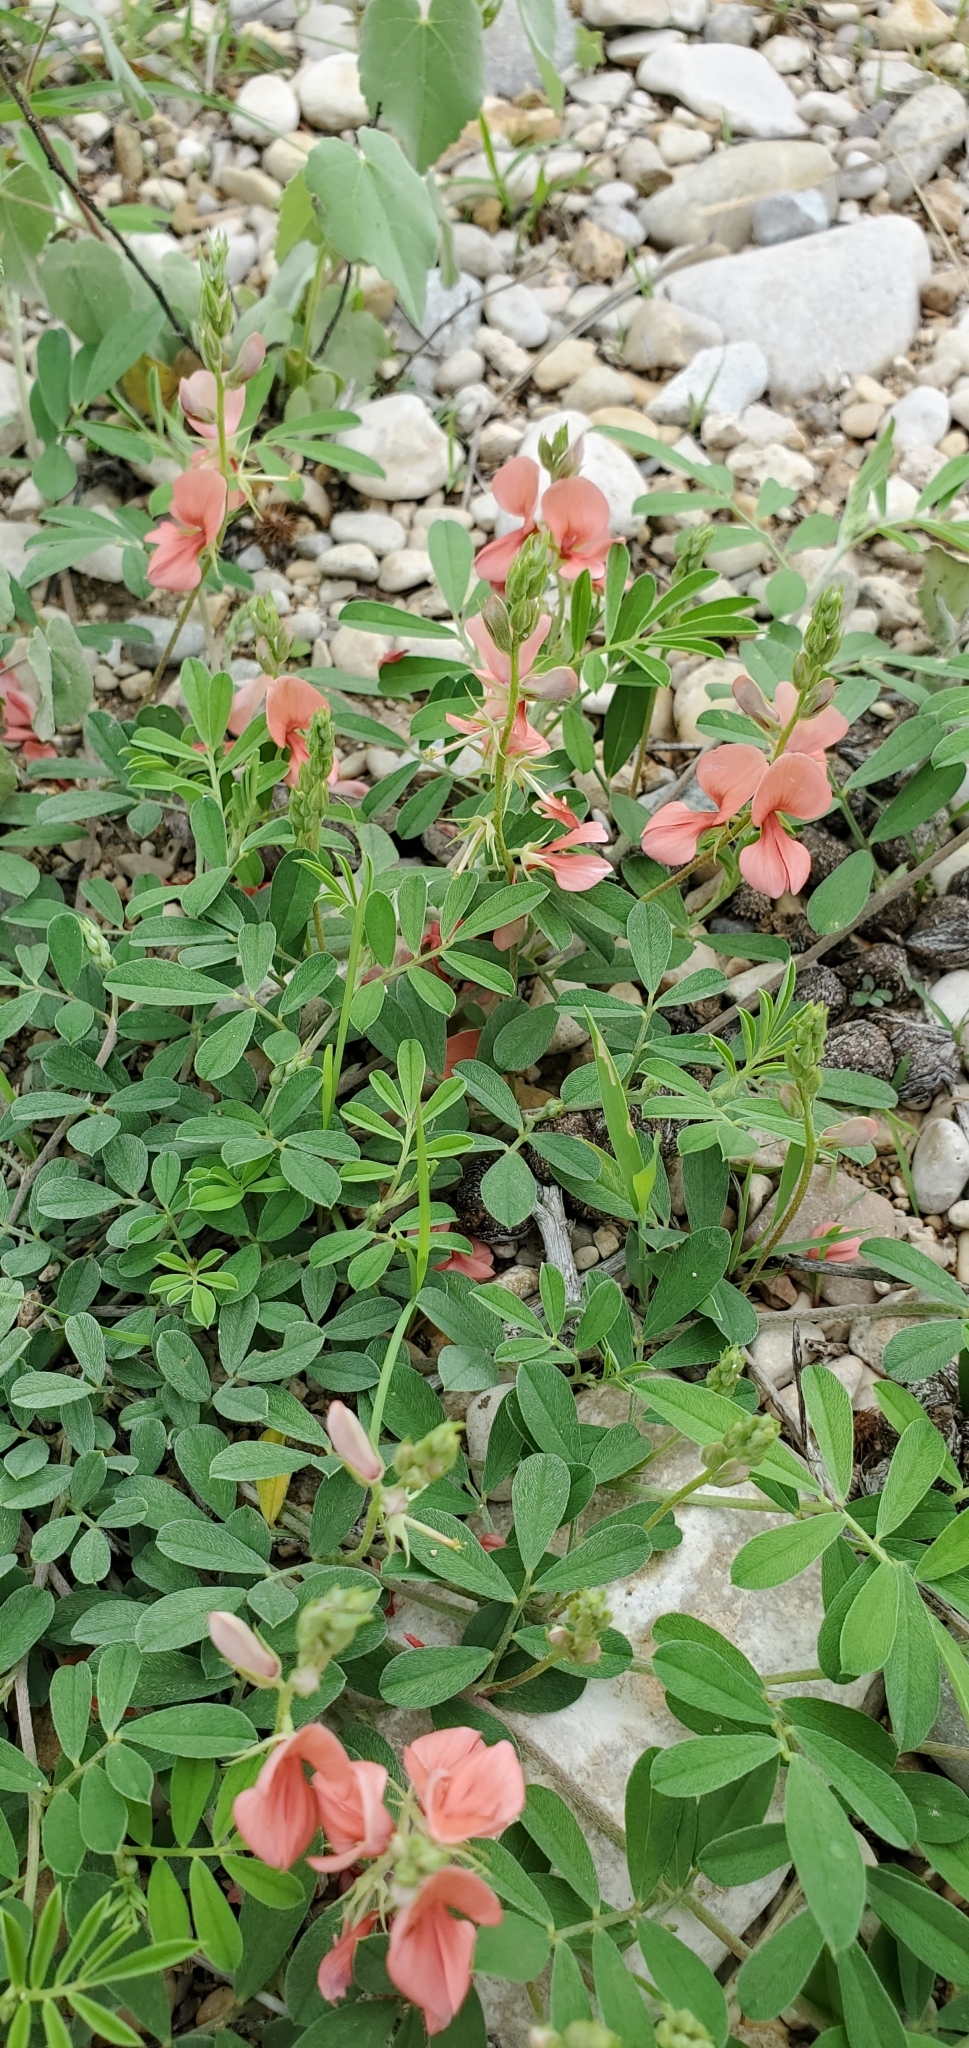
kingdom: Plantae
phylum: Tracheophyta
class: Magnoliopsida
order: Fabales
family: Fabaceae
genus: Indigofera
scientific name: Indigofera miniata
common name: Coast indigo
